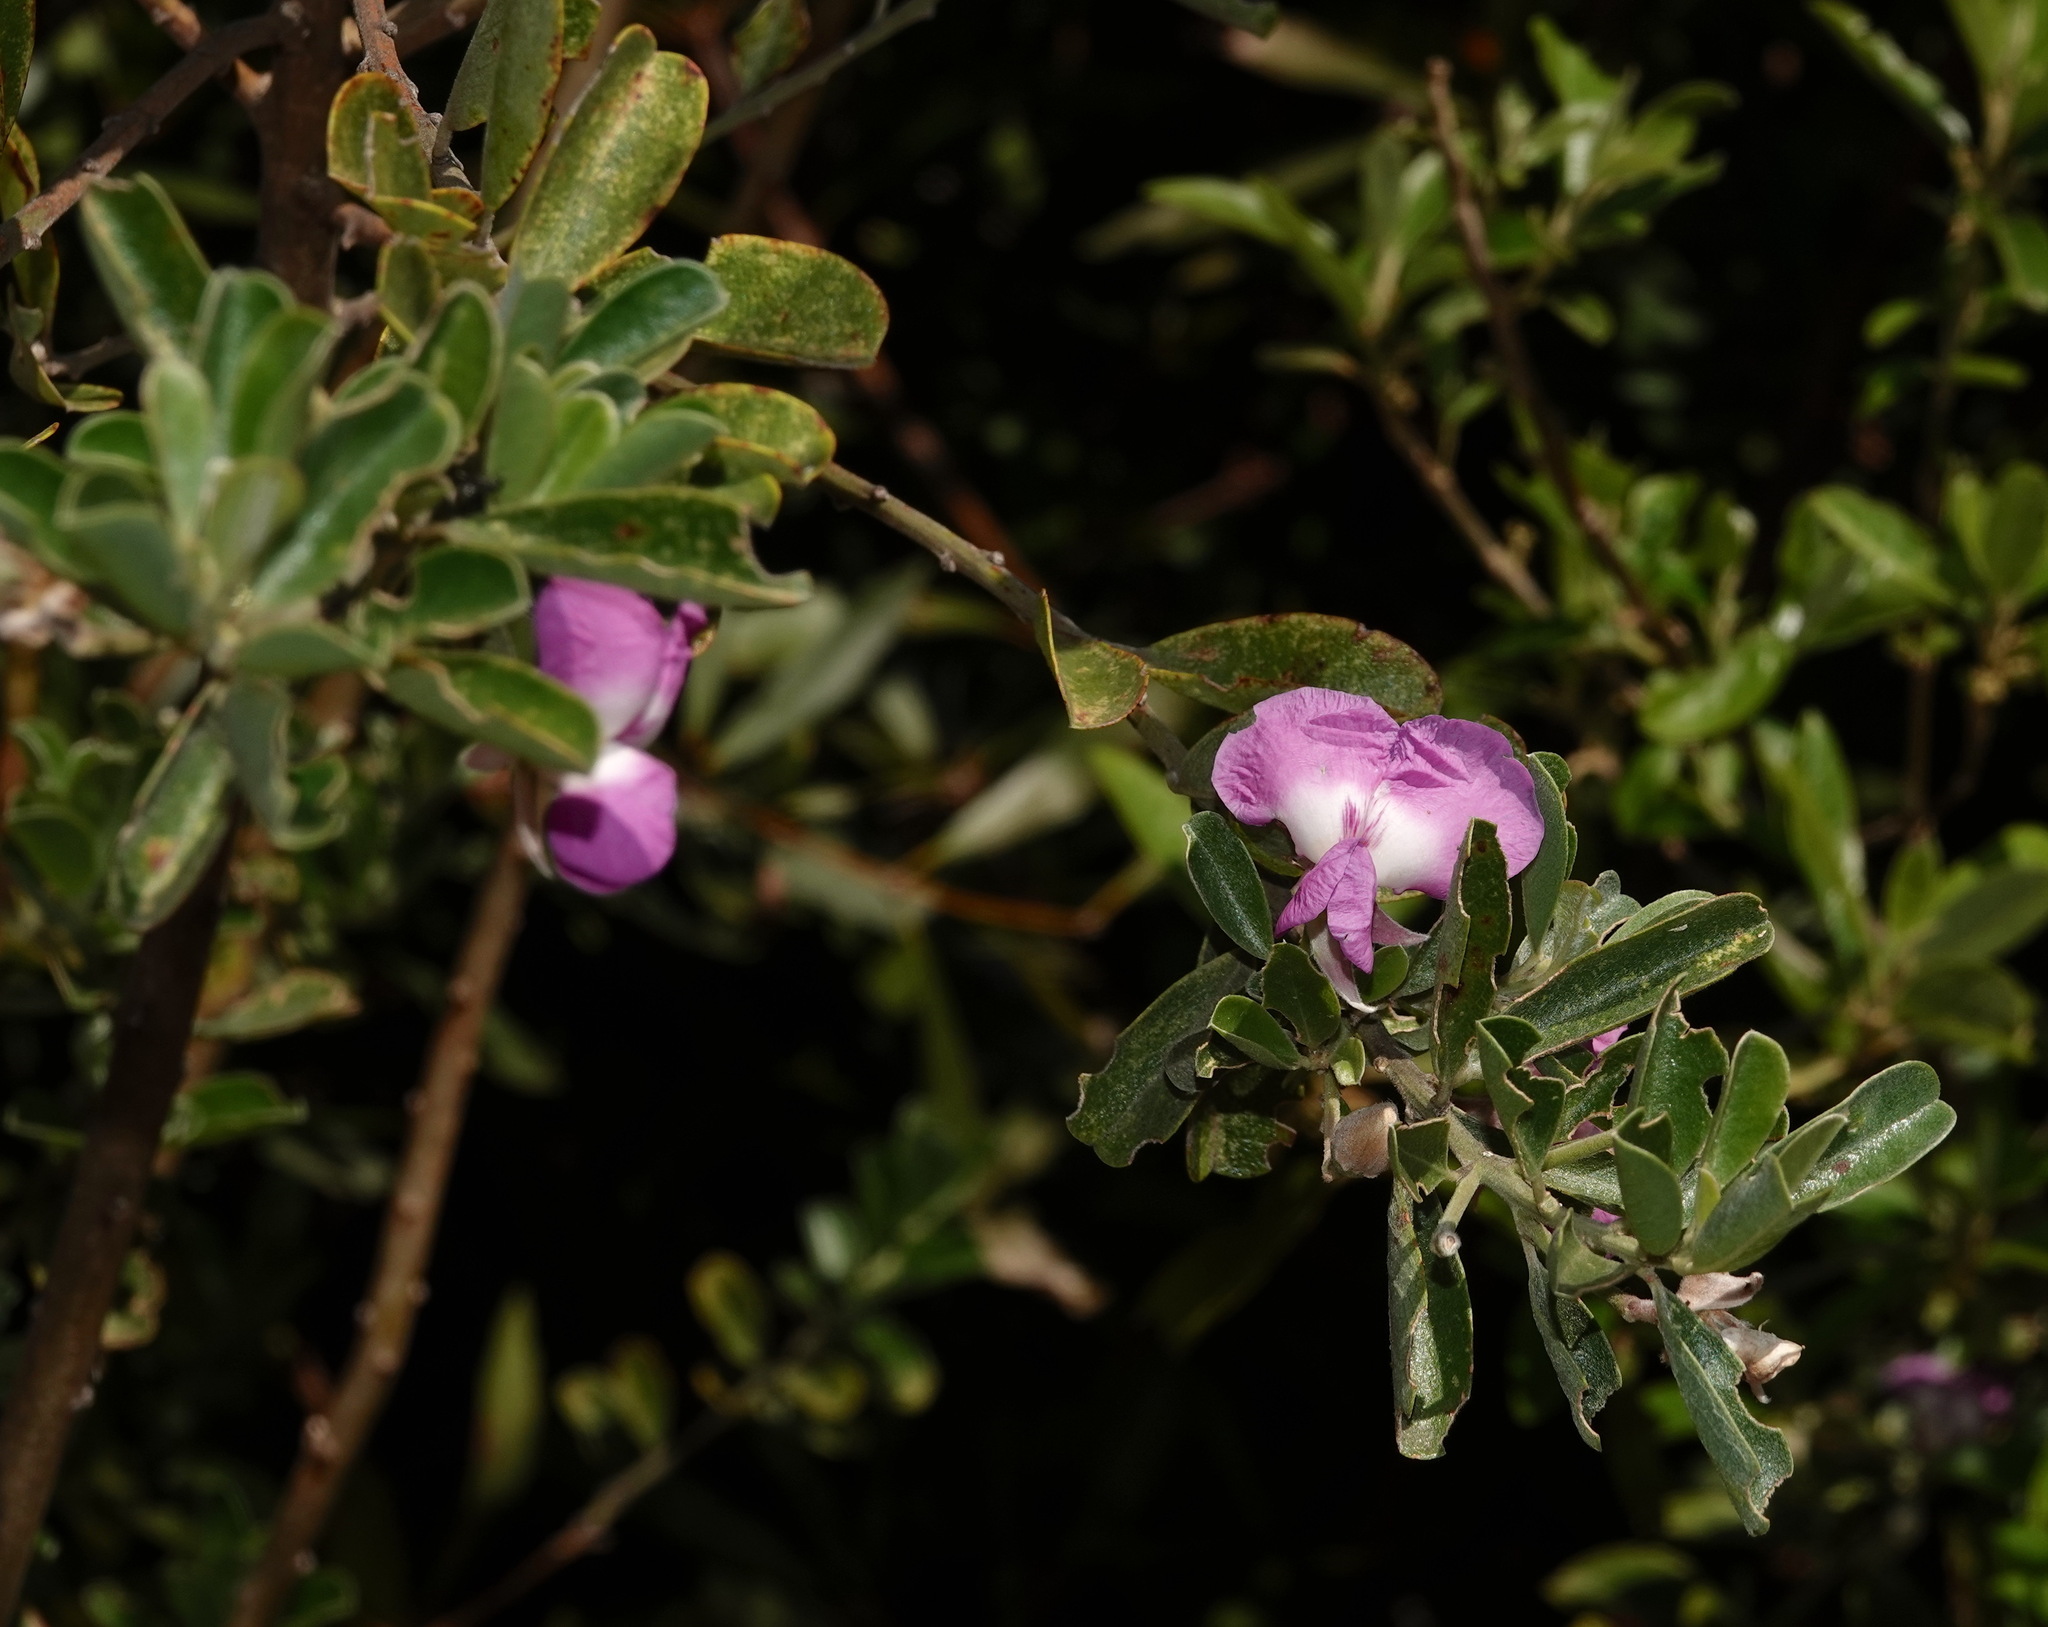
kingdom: Plantae
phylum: Tracheophyta
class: Magnoliopsida
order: Fabales
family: Fabaceae
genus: Podalyria
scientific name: Podalyria calyptrata
